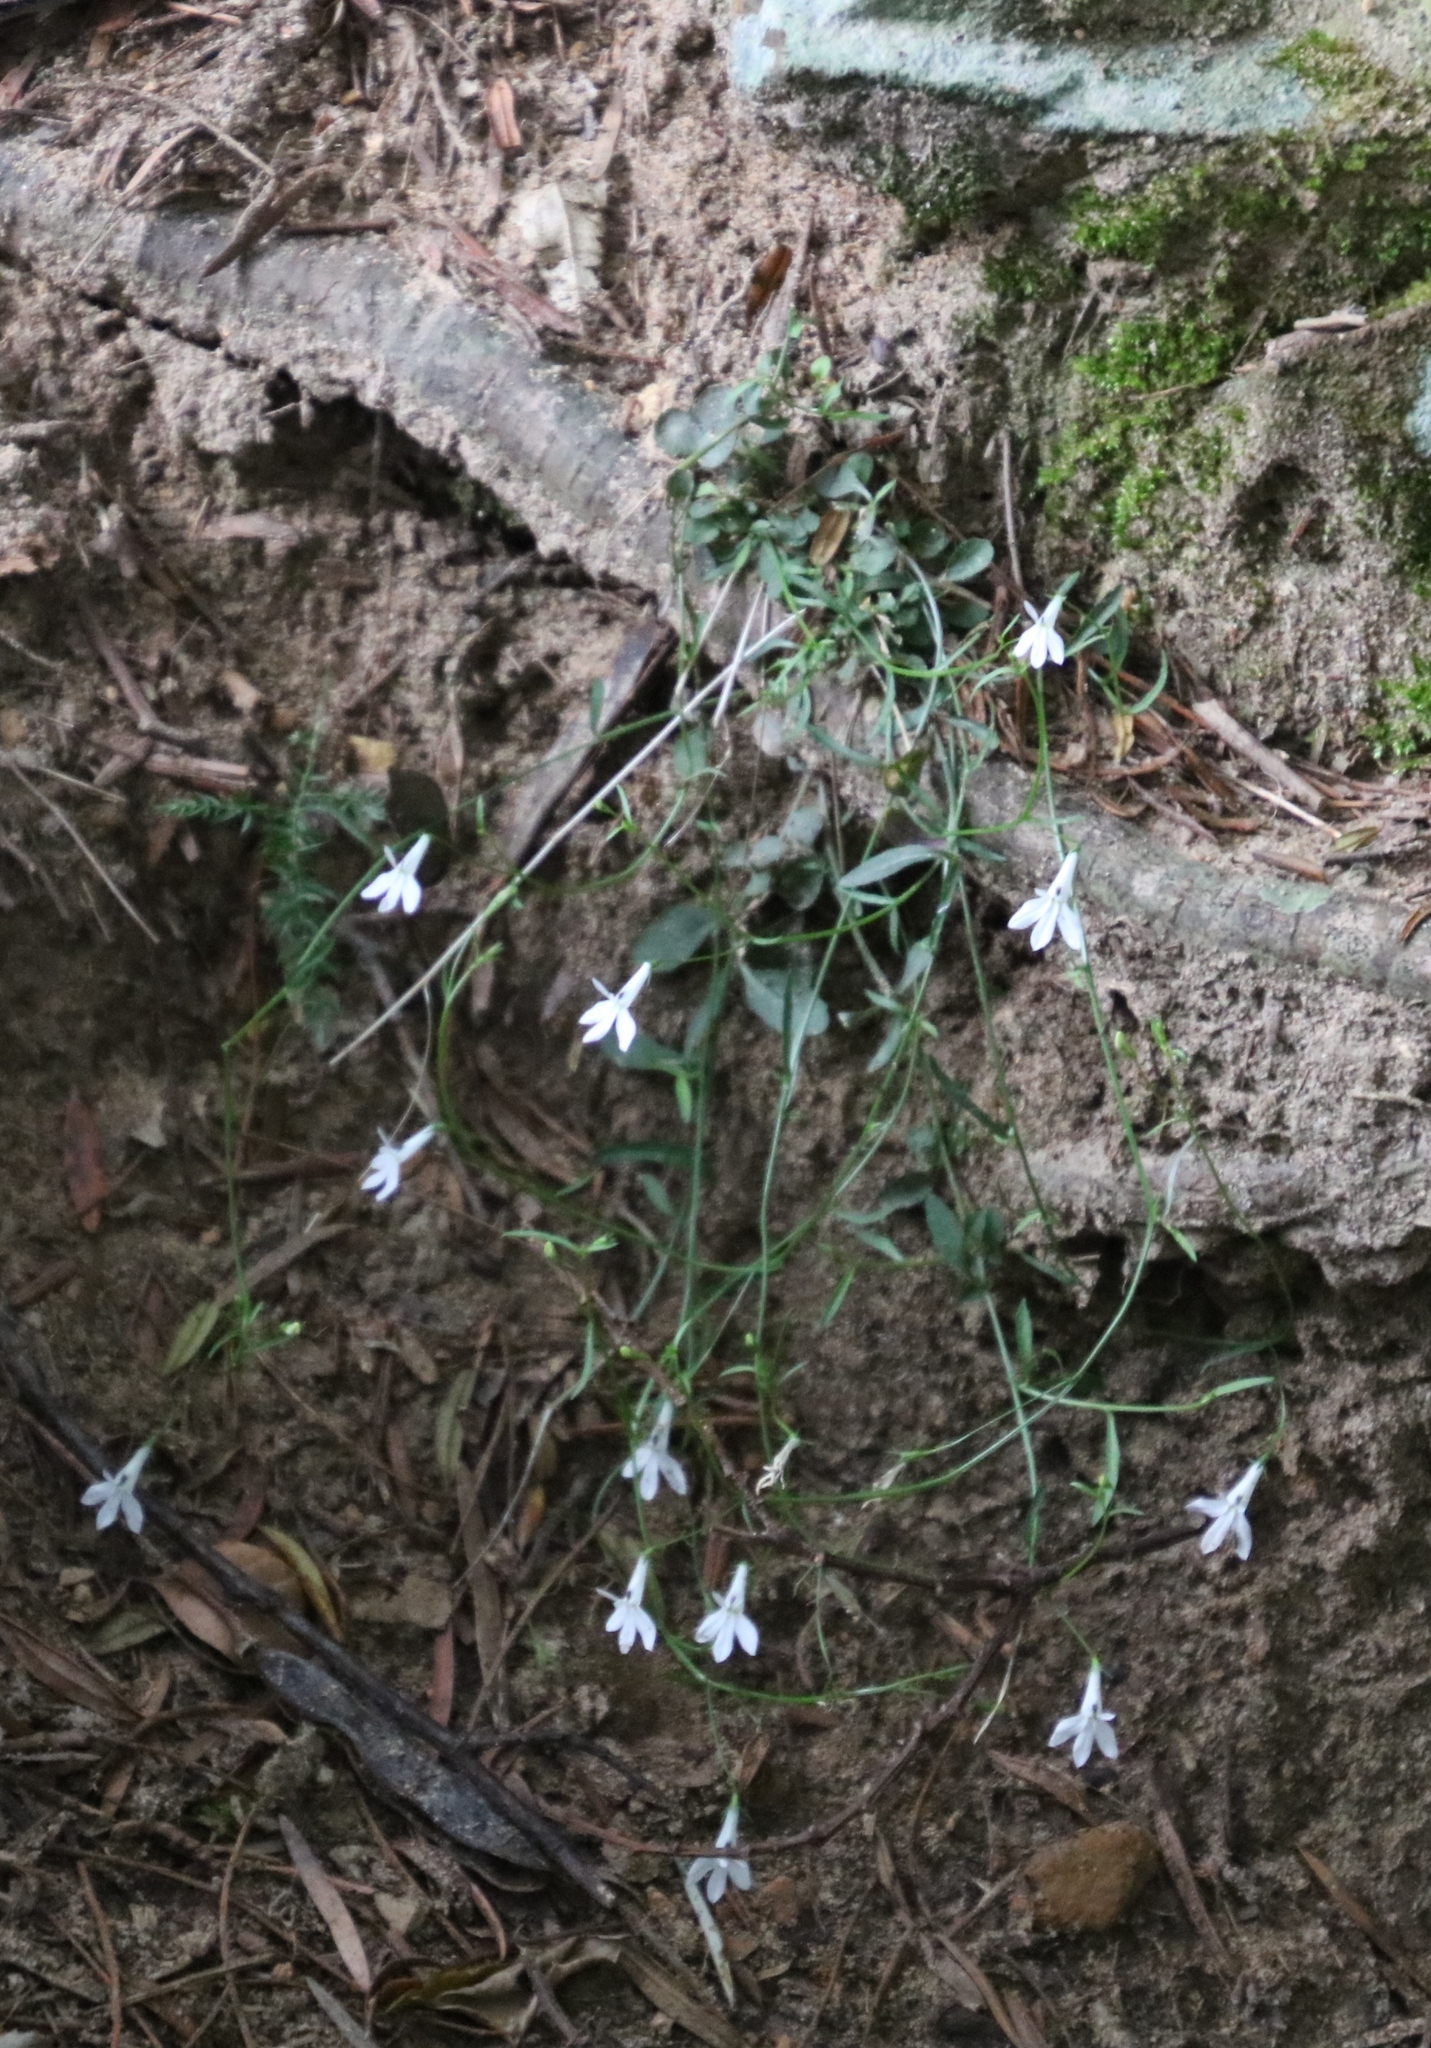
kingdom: Plantae
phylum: Tracheophyta
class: Magnoliopsida
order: Asterales
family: Campanulaceae
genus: Lobelia
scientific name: Lobelia pubescens
